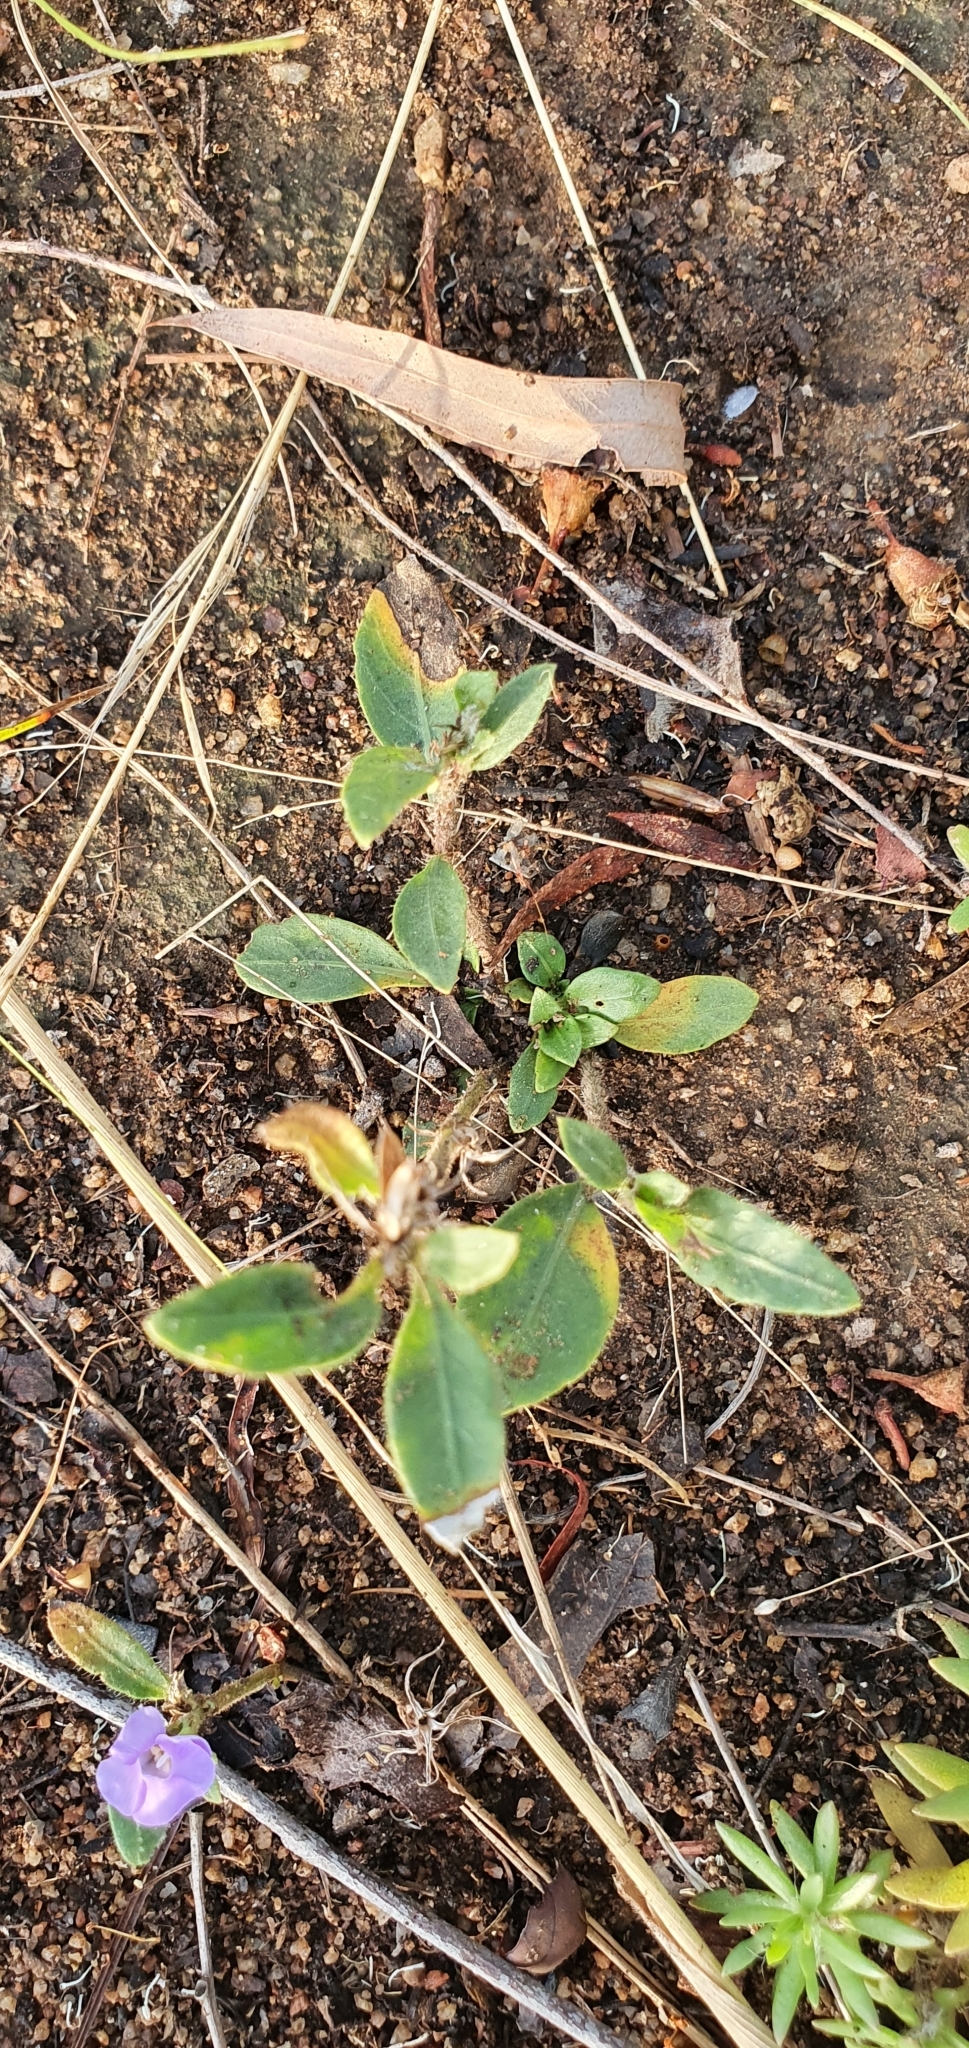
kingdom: Plantae
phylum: Tracheophyta
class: Magnoliopsida
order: Lamiales
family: Acanthaceae
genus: Brunoniella
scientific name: Brunoniella australis
